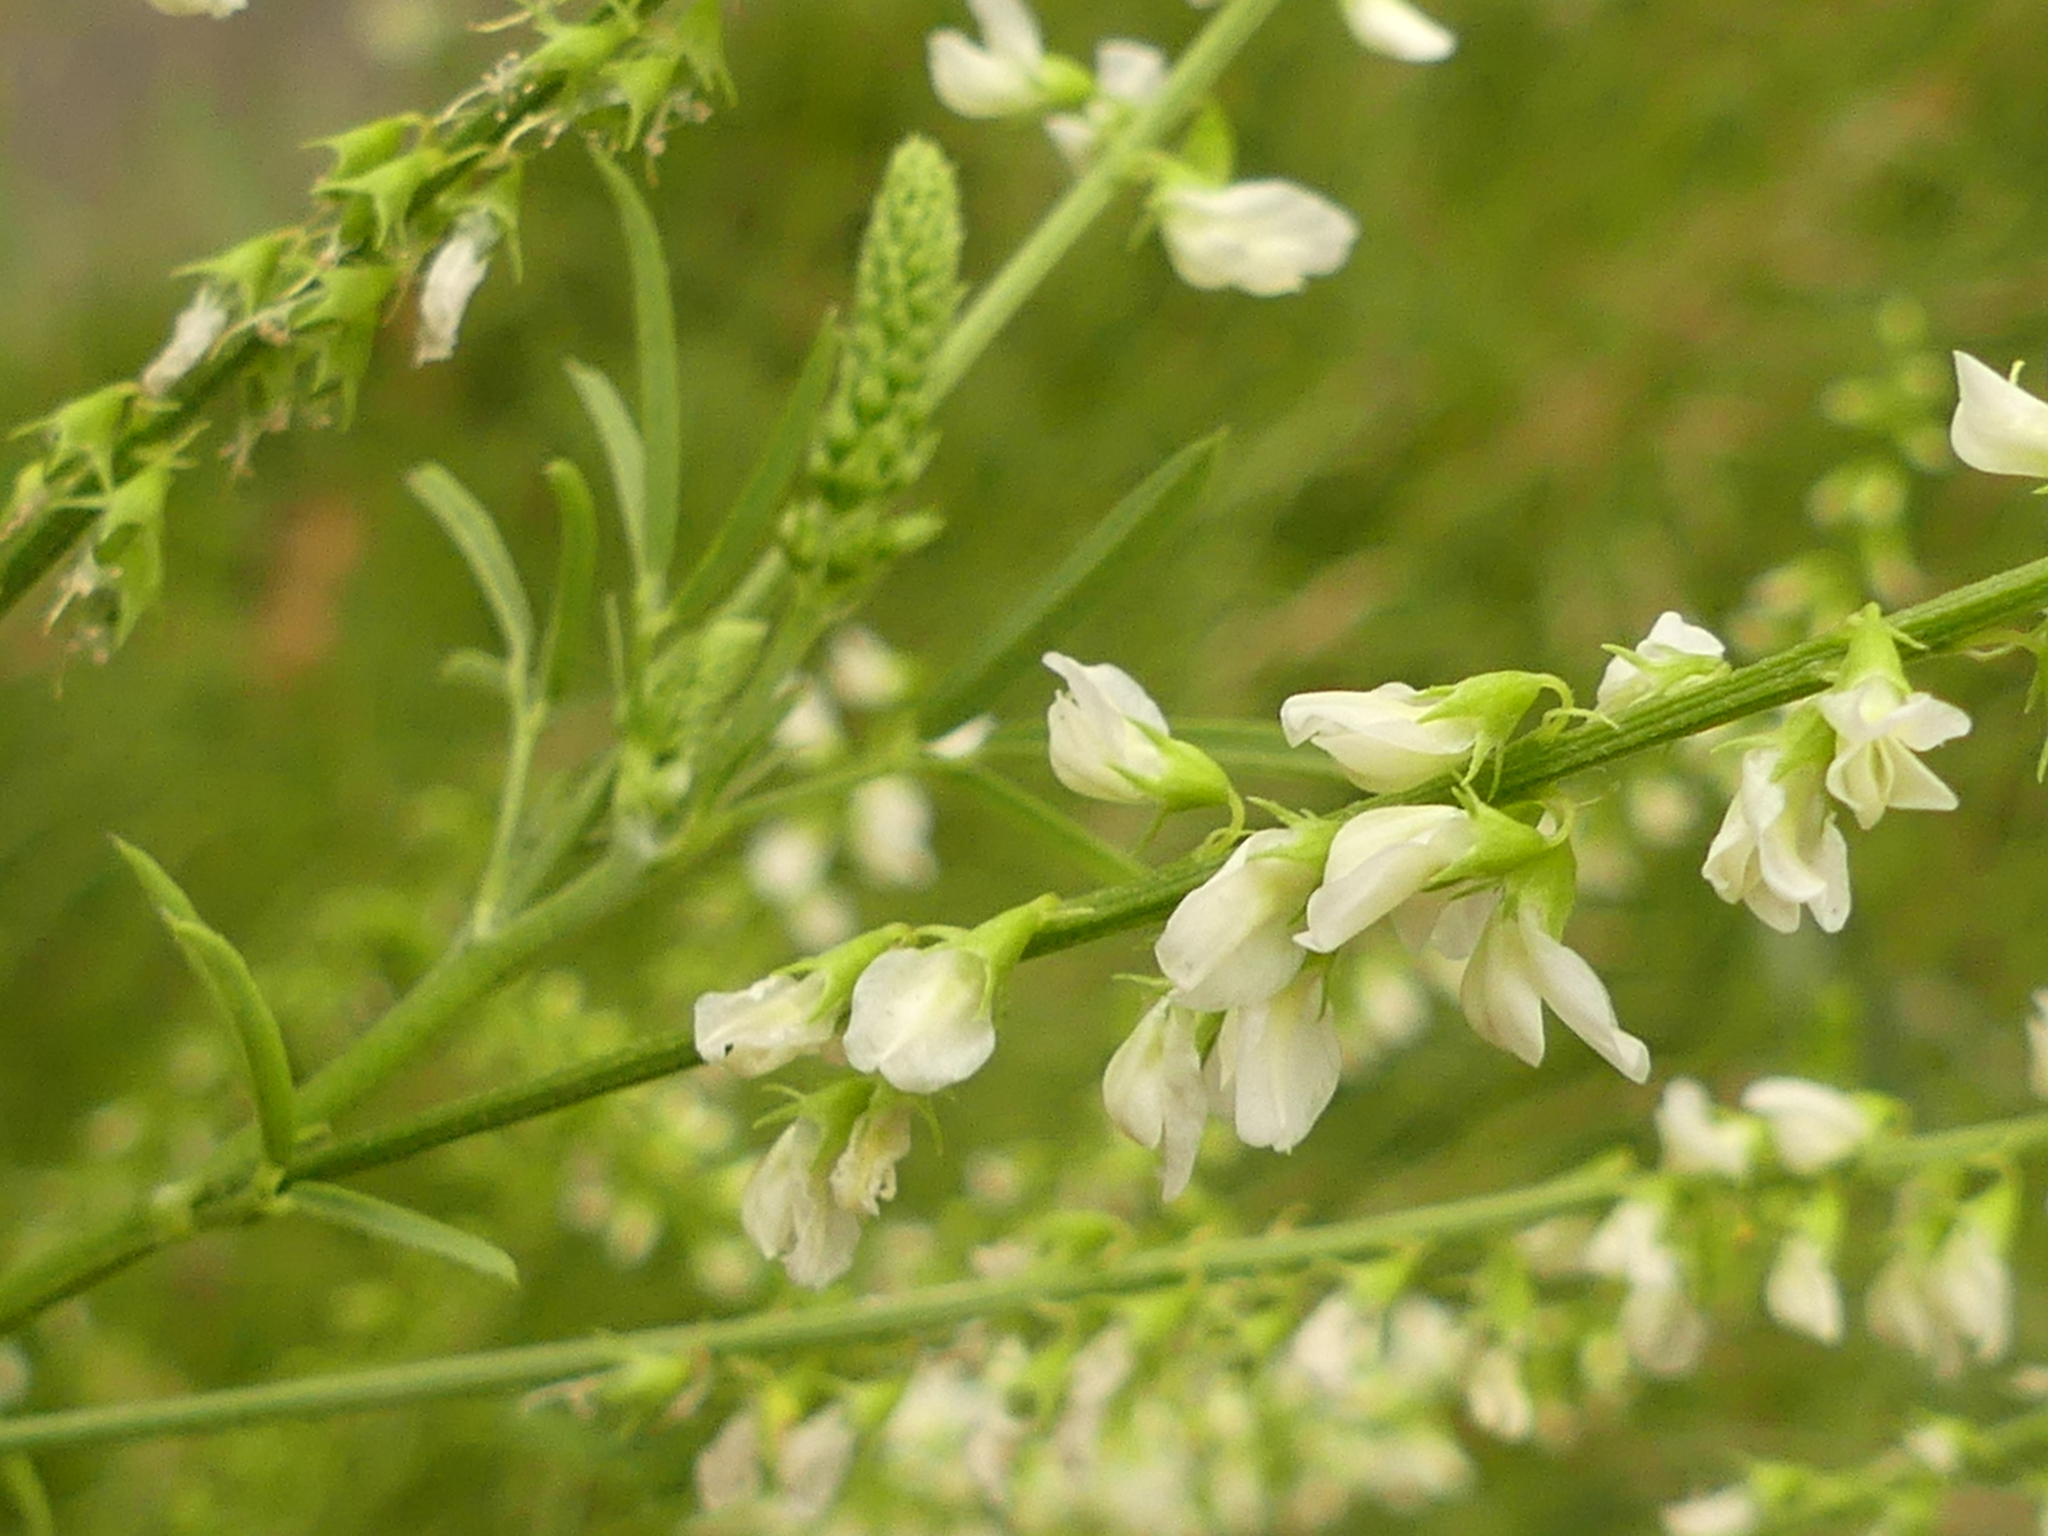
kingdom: Plantae
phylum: Tracheophyta
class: Magnoliopsida
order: Fabales
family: Fabaceae
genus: Melilotus
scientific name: Melilotus albus
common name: White melilot
